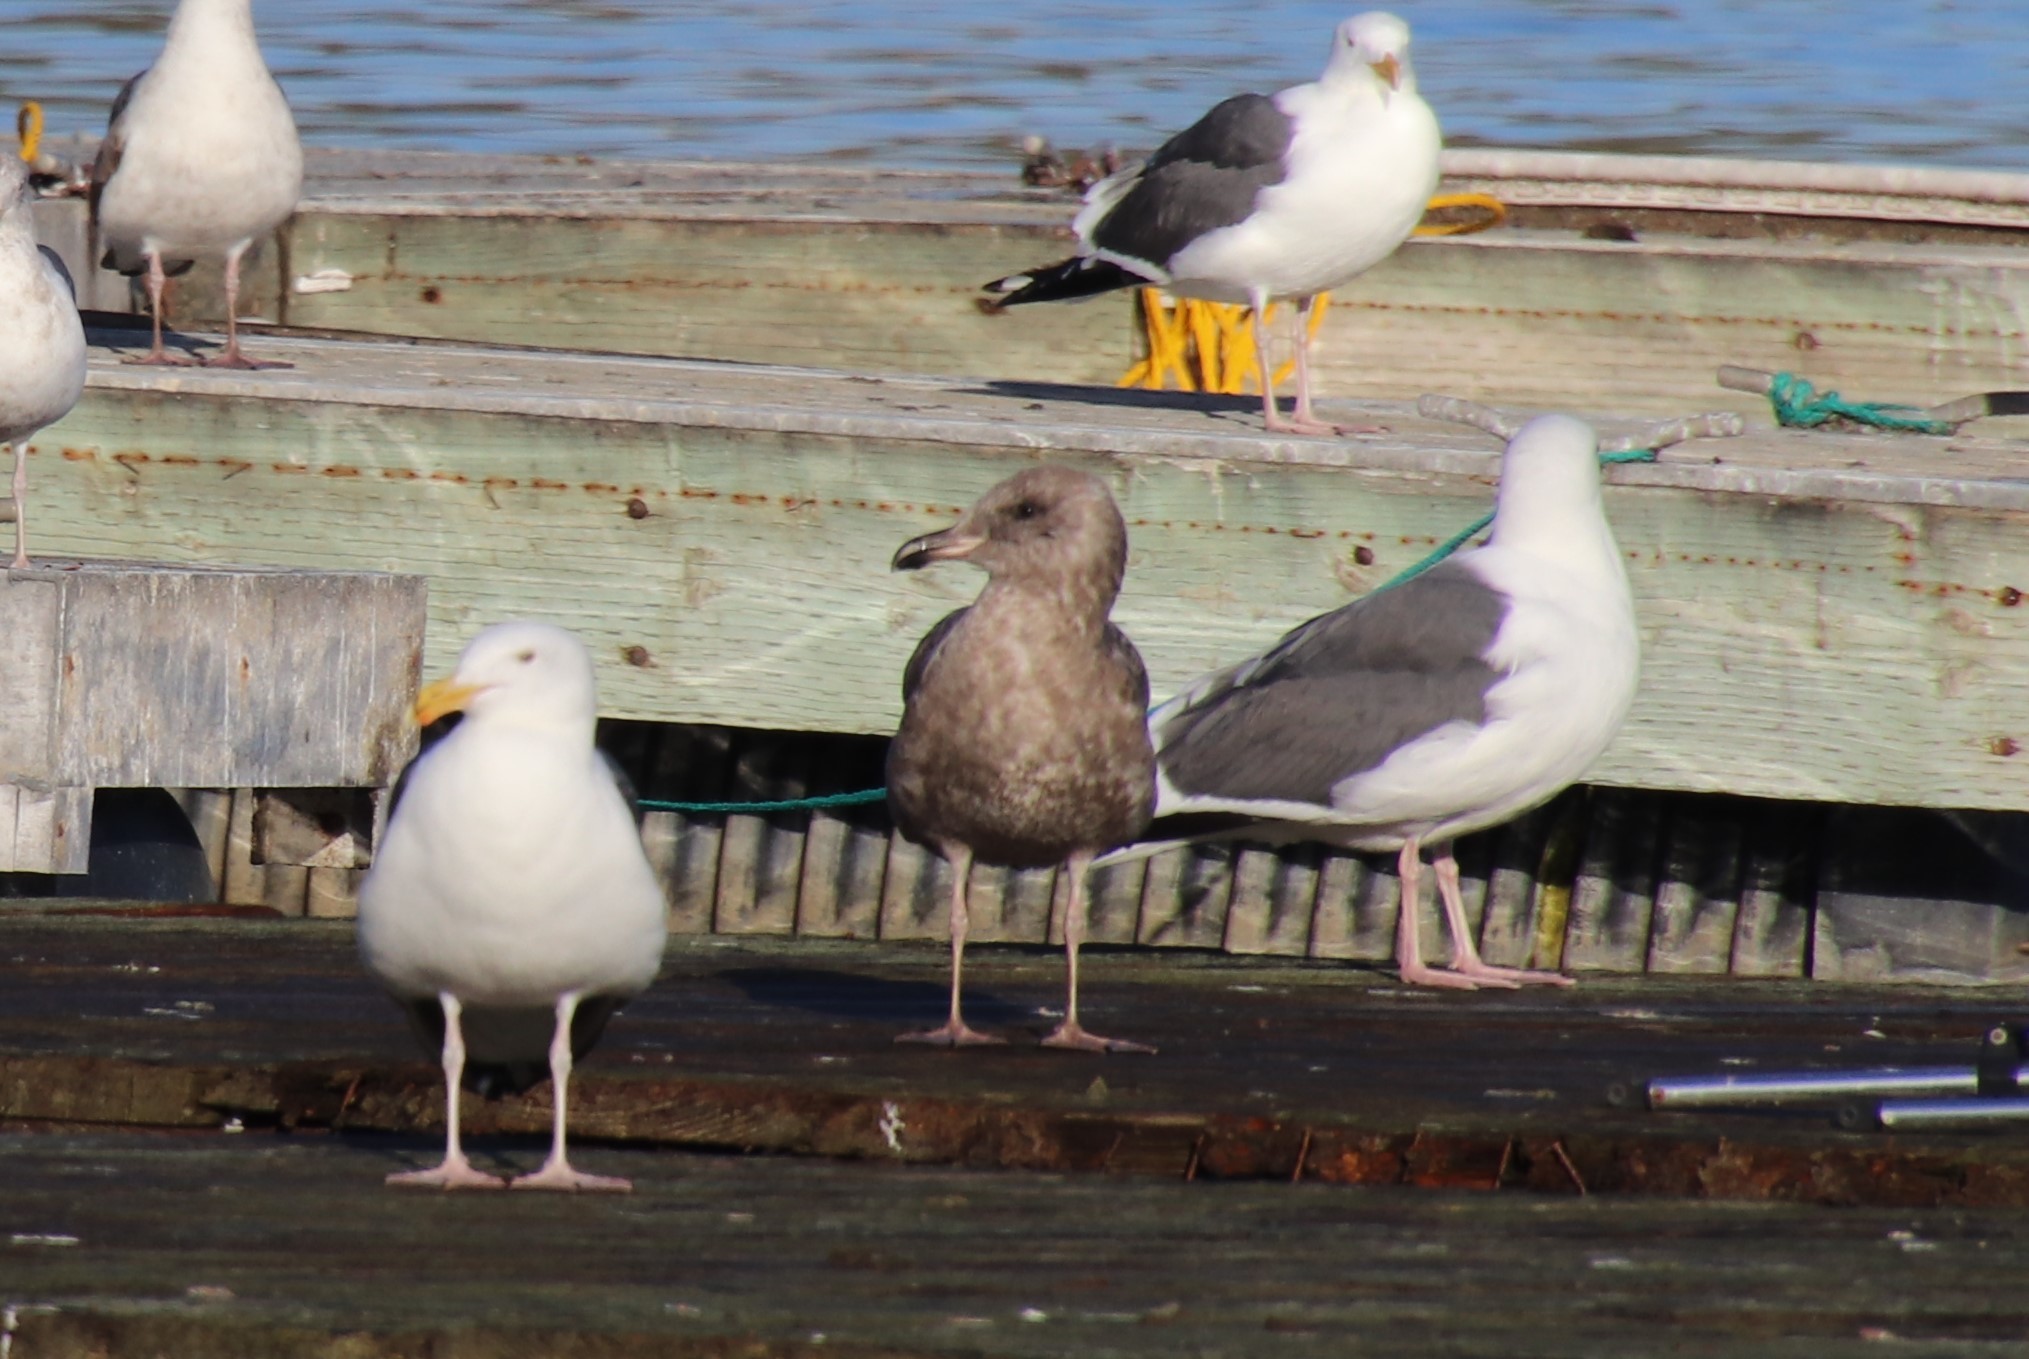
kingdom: Animalia
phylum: Chordata
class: Aves
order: Charadriiformes
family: Laridae
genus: Larus
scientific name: Larus occidentalis
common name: Western gull
